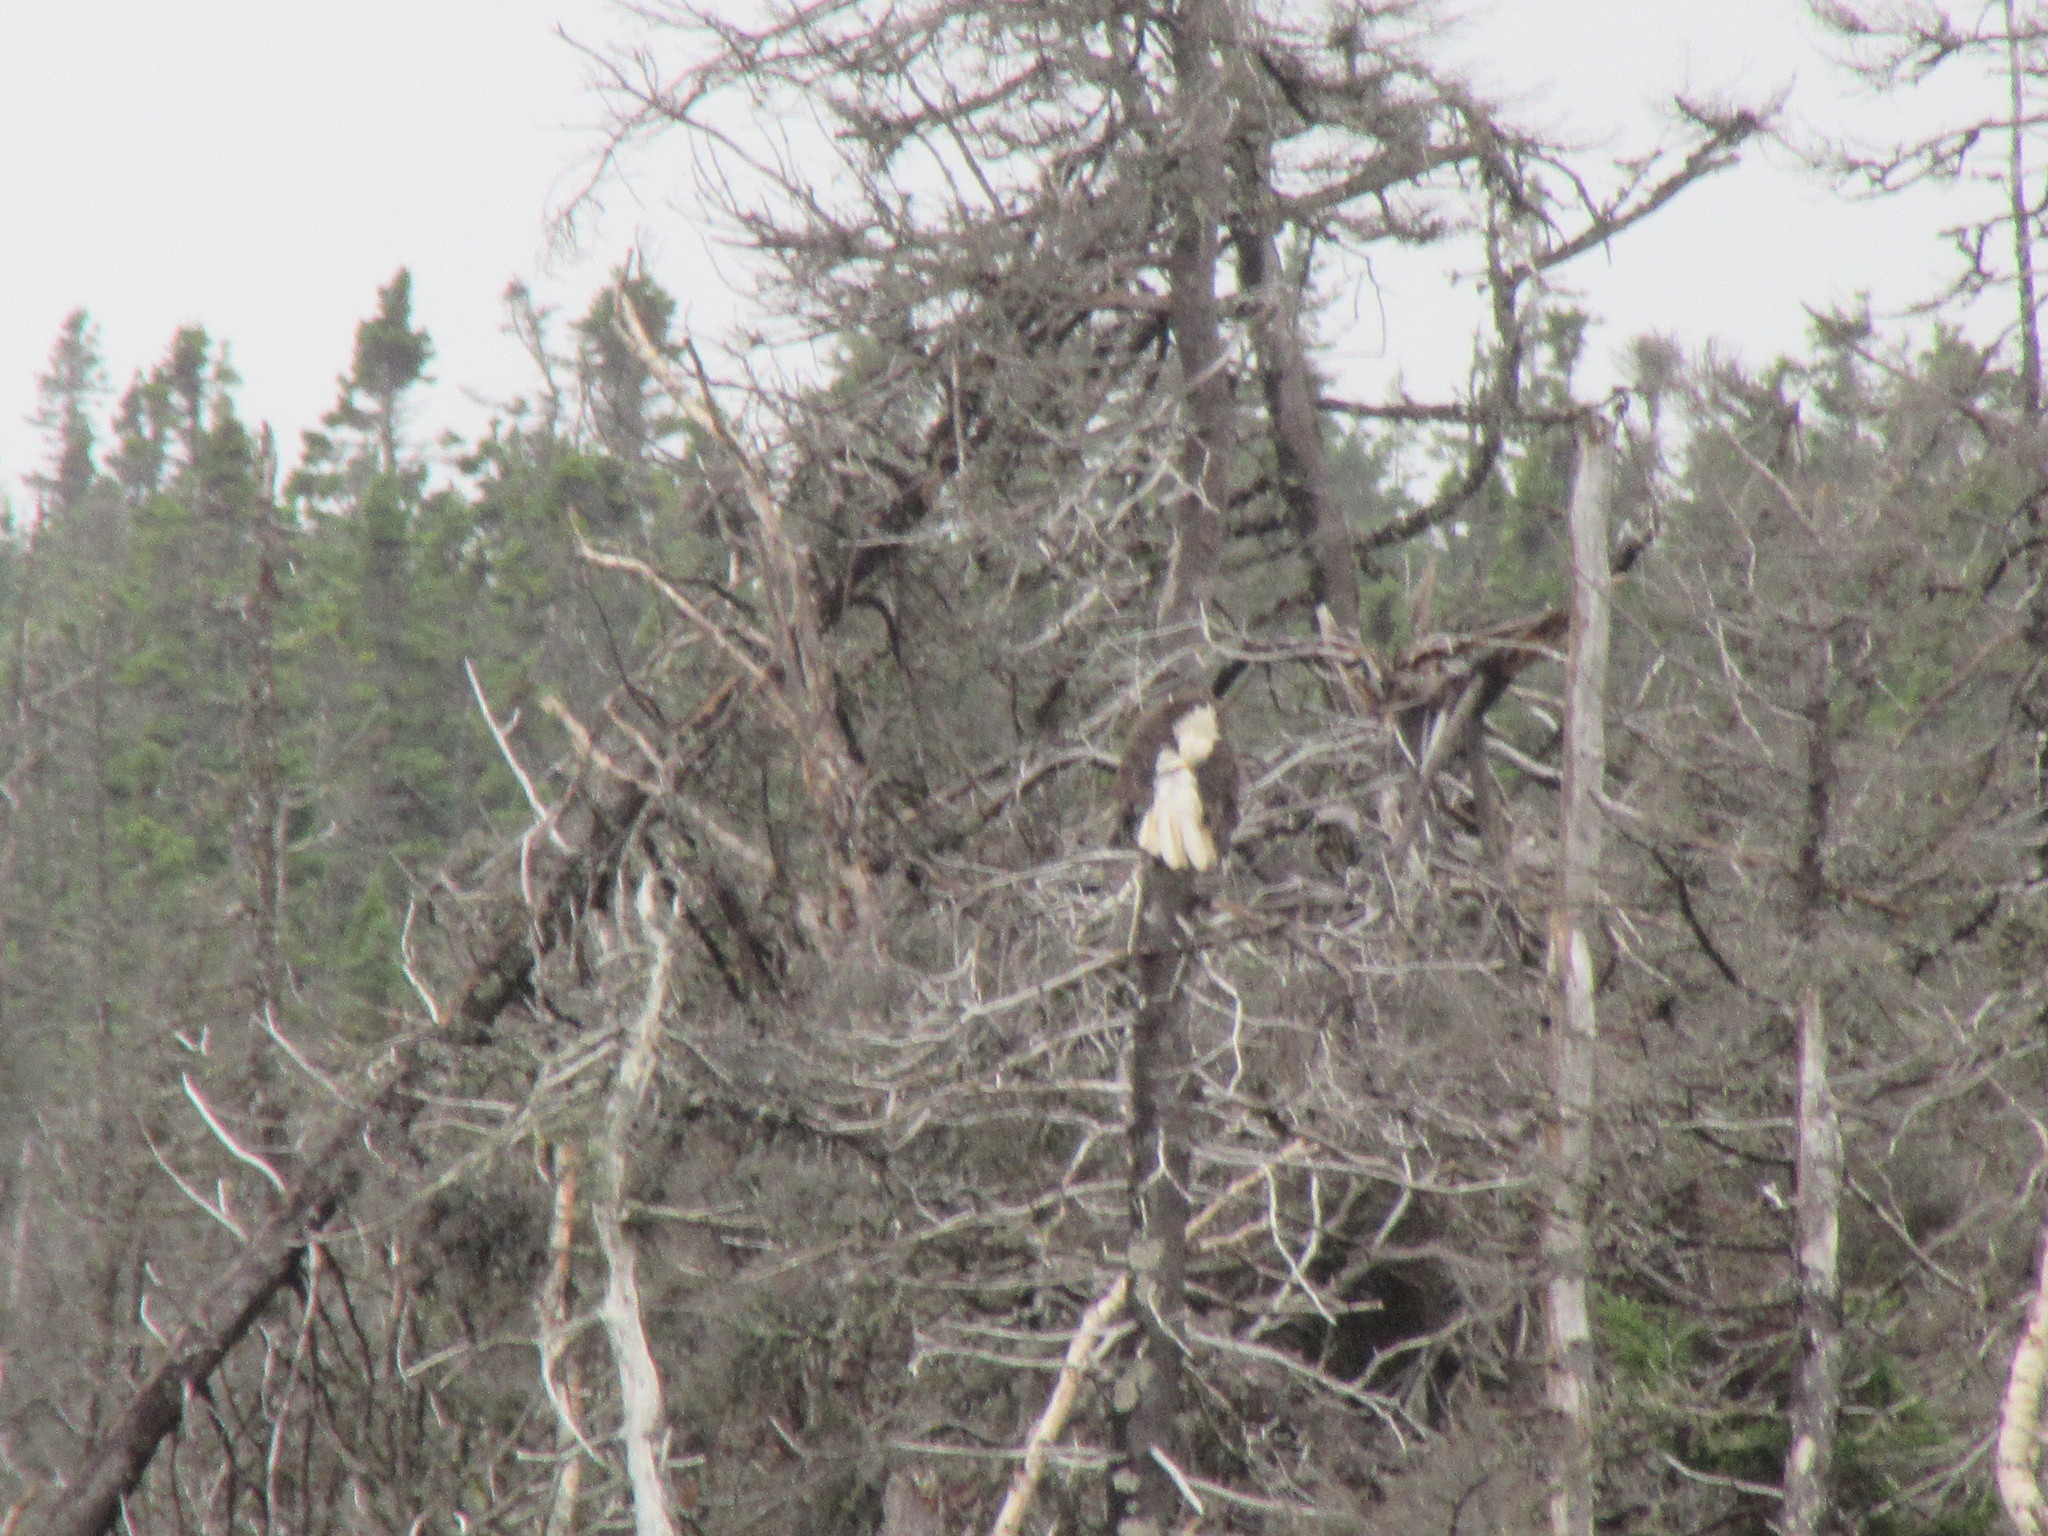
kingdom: Animalia
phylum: Chordata
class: Aves
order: Accipitriformes
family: Accipitridae
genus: Haliaeetus
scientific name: Haliaeetus leucocephalus
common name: Bald eagle
